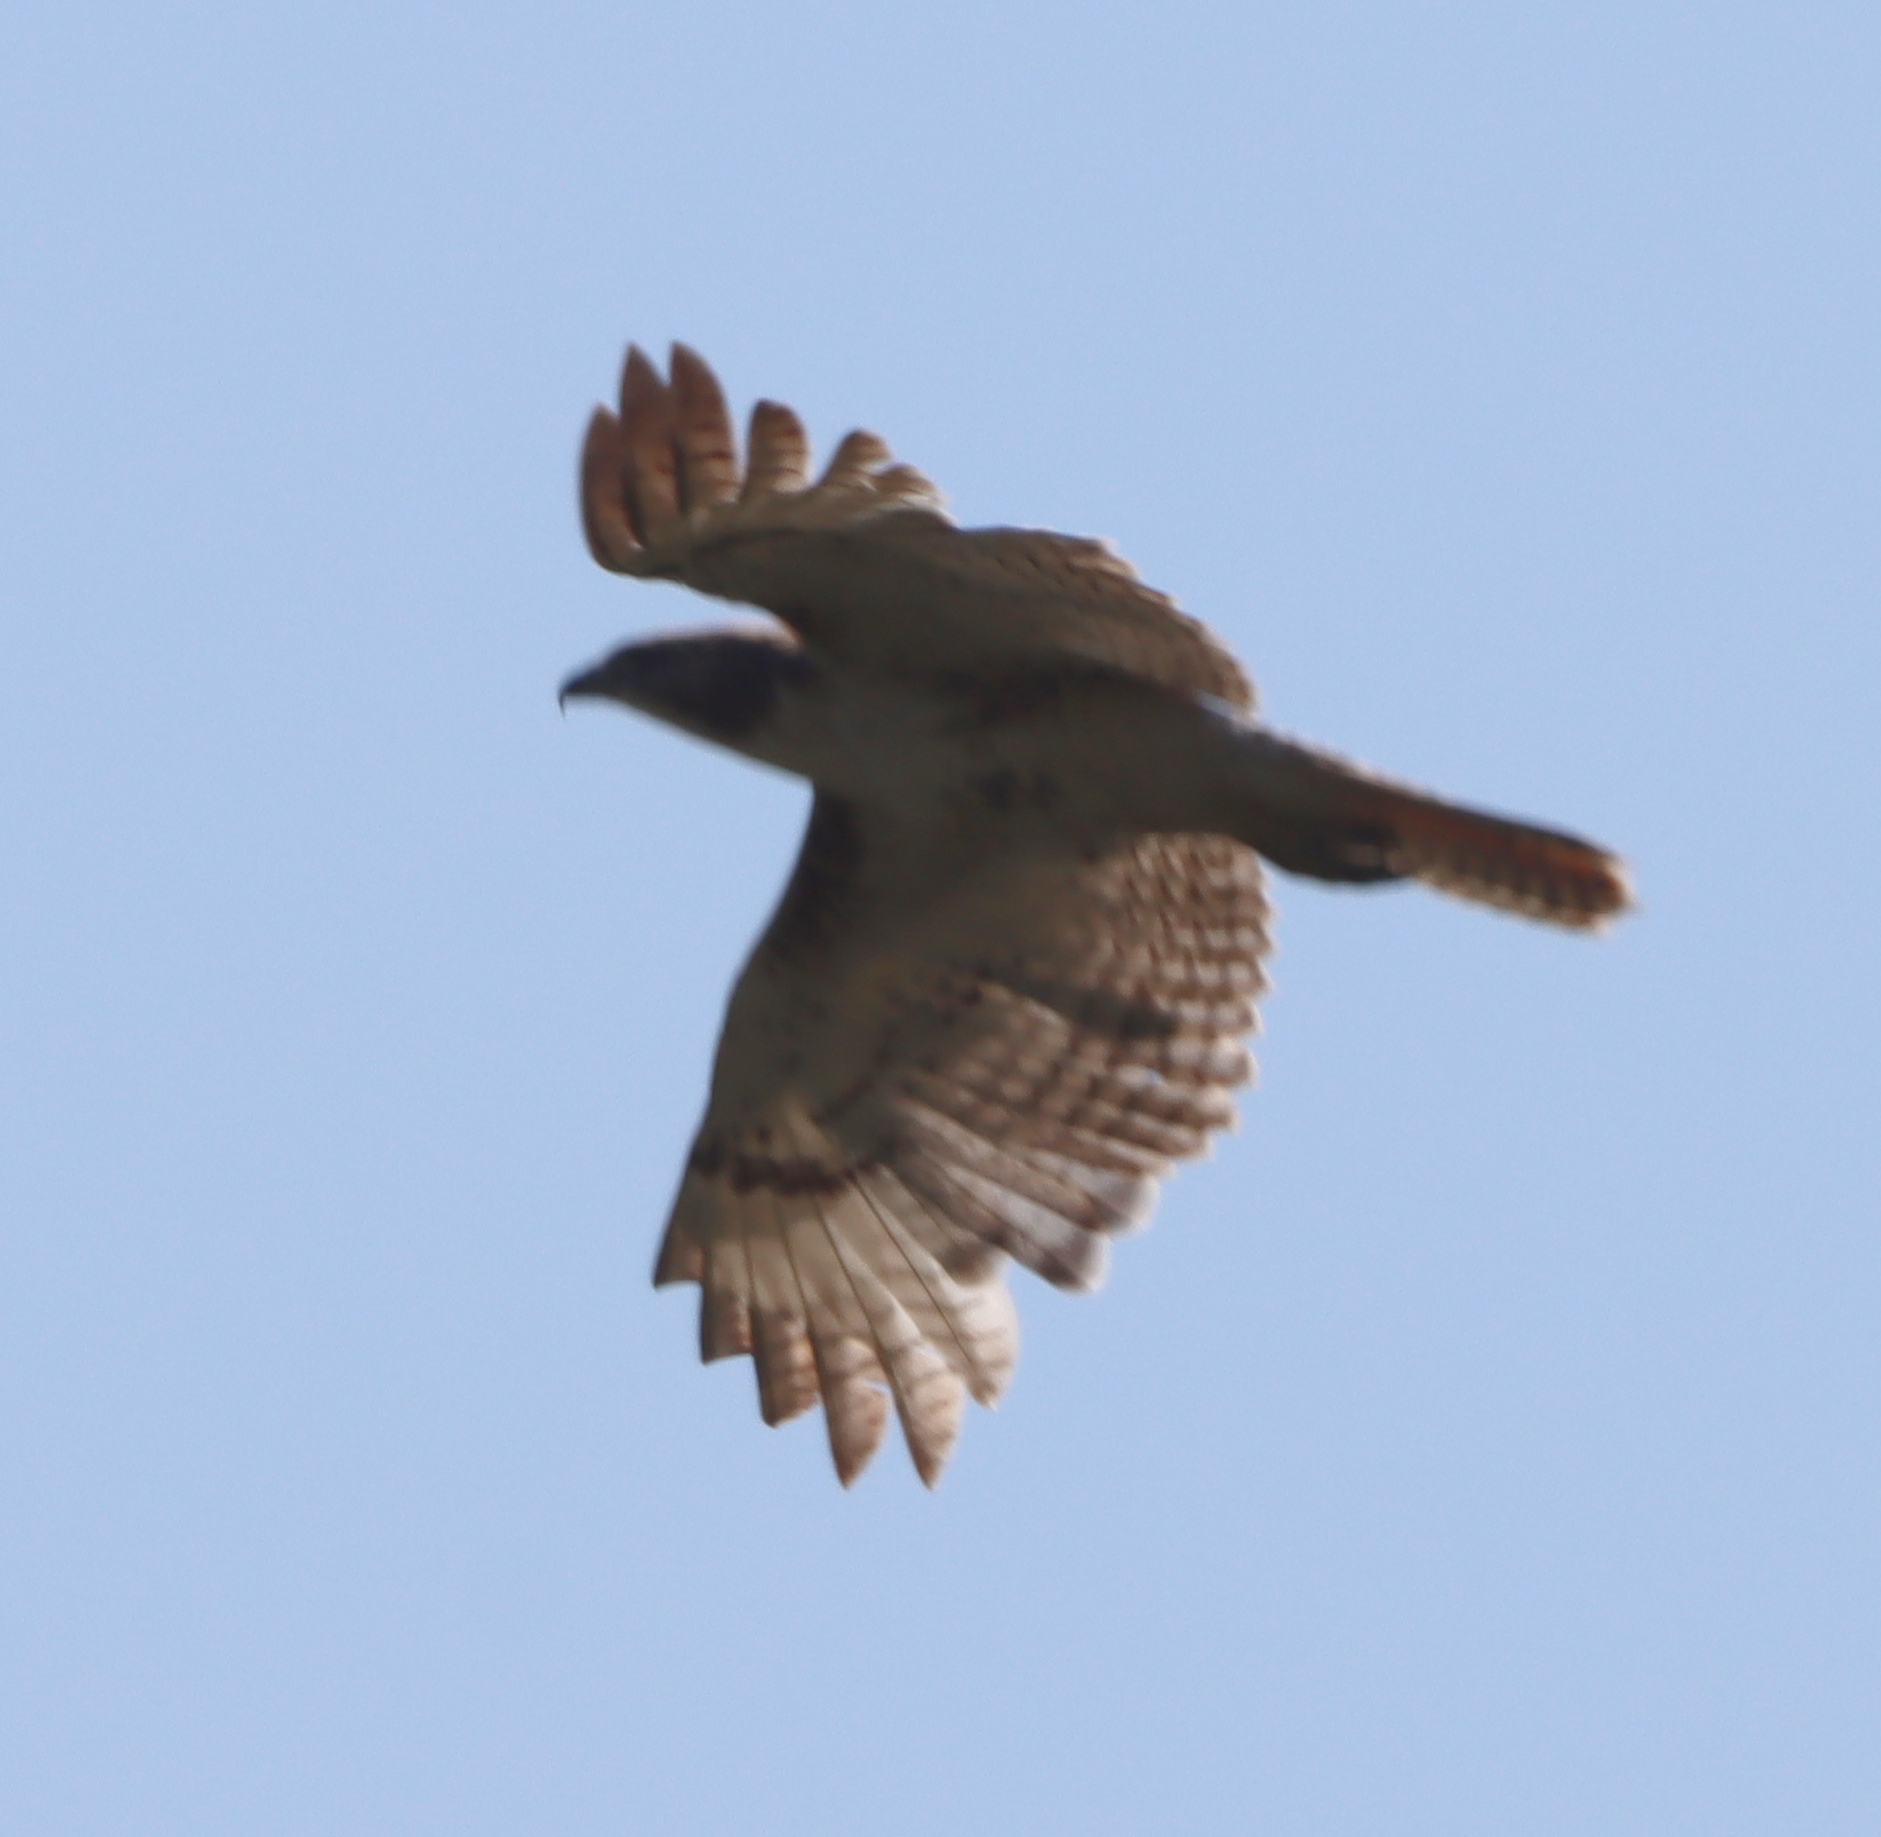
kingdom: Animalia
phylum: Chordata
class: Aves
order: Accipitriformes
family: Accipitridae
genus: Buteo
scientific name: Buteo jamaicensis
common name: Red-tailed hawk
